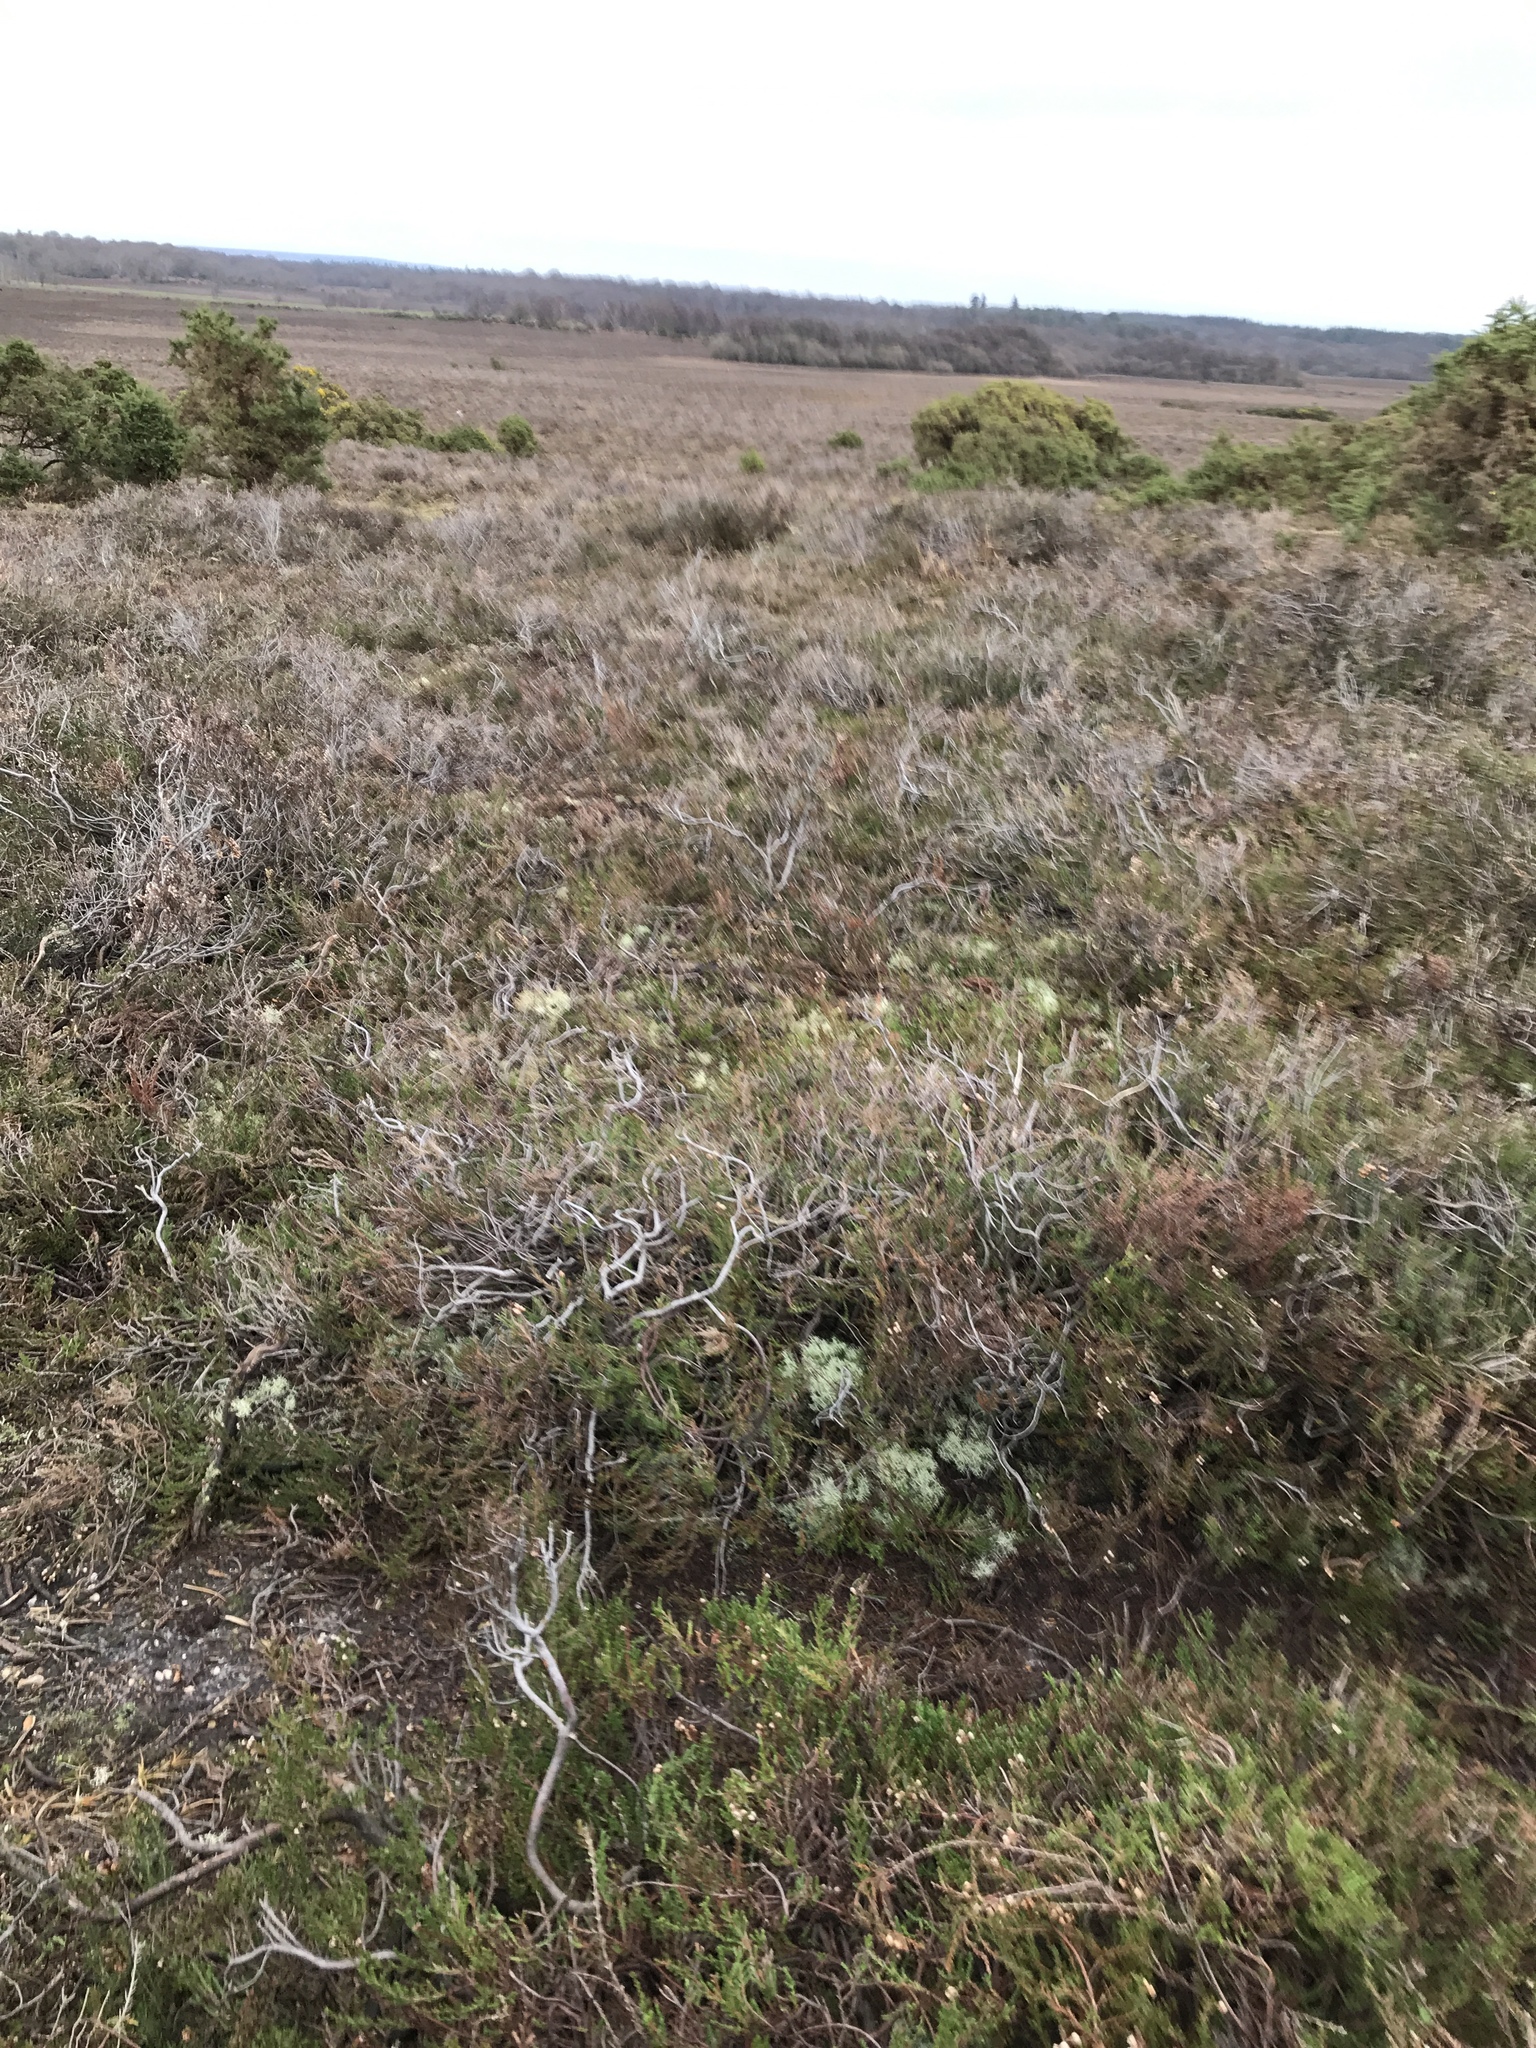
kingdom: Plantae
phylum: Tracheophyta
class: Magnoliopsida
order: Ericales
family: Ericaceae
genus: Calluna
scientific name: Calluna vulgaris
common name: Heather
